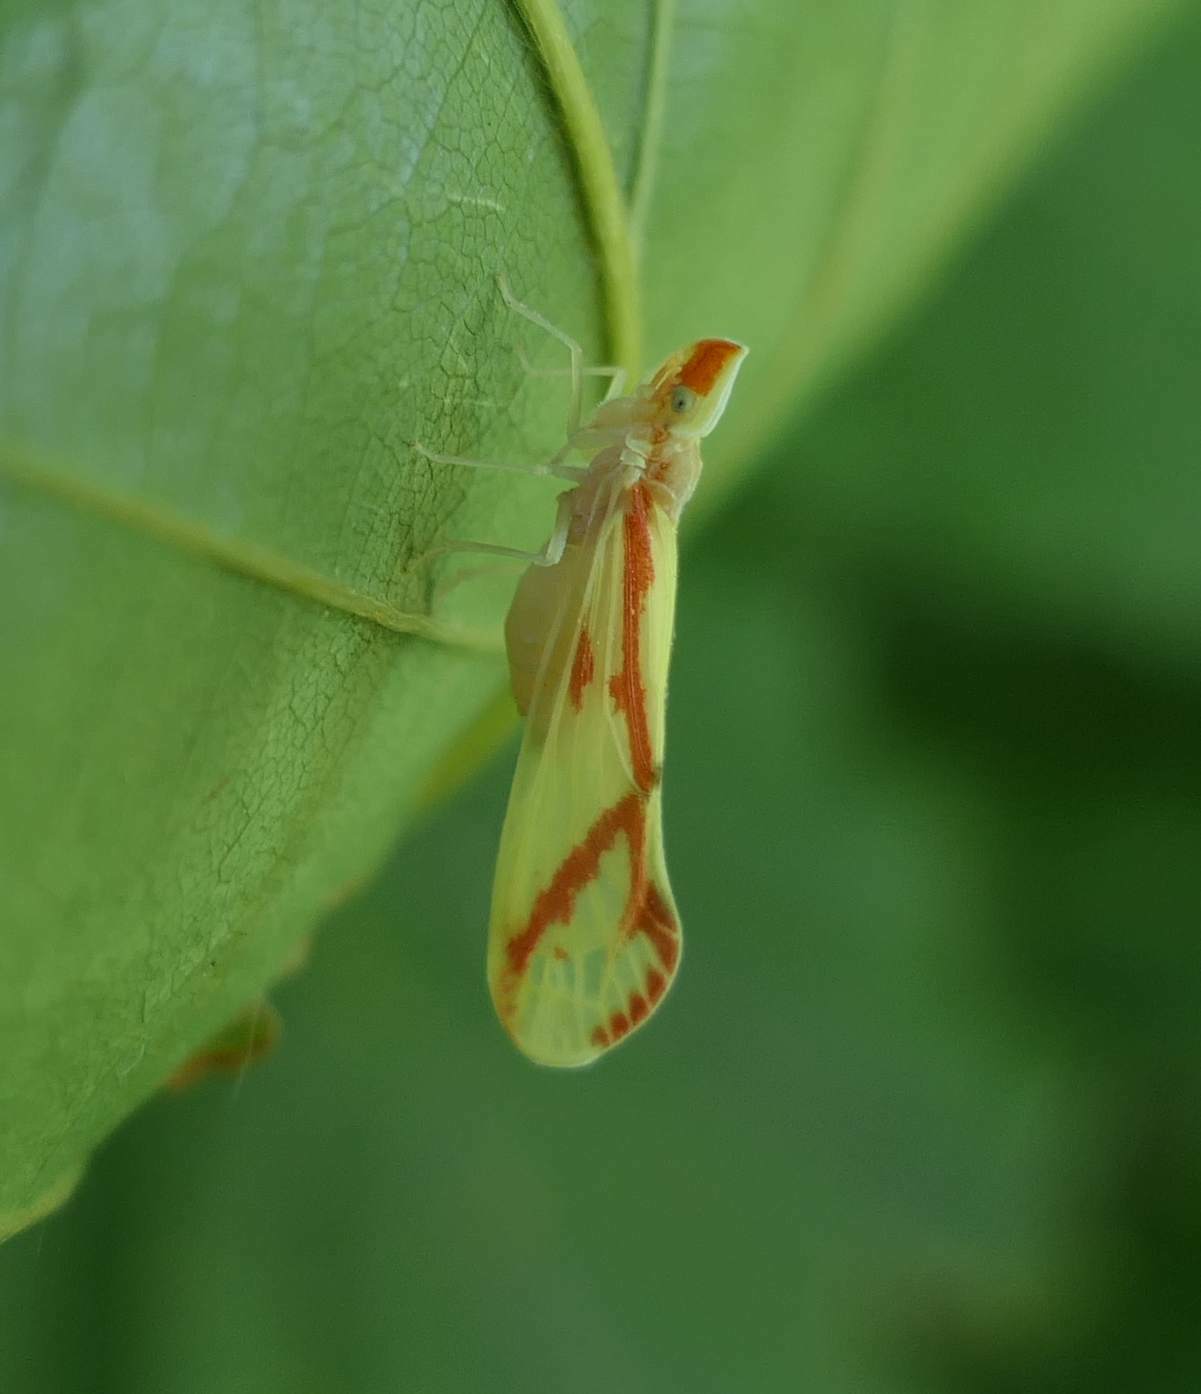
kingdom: Animalia
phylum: Arthropoda
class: Insecta
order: Hemiptera
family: Derbidae
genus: Otiocerus
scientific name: Otiocerus coquebertii
